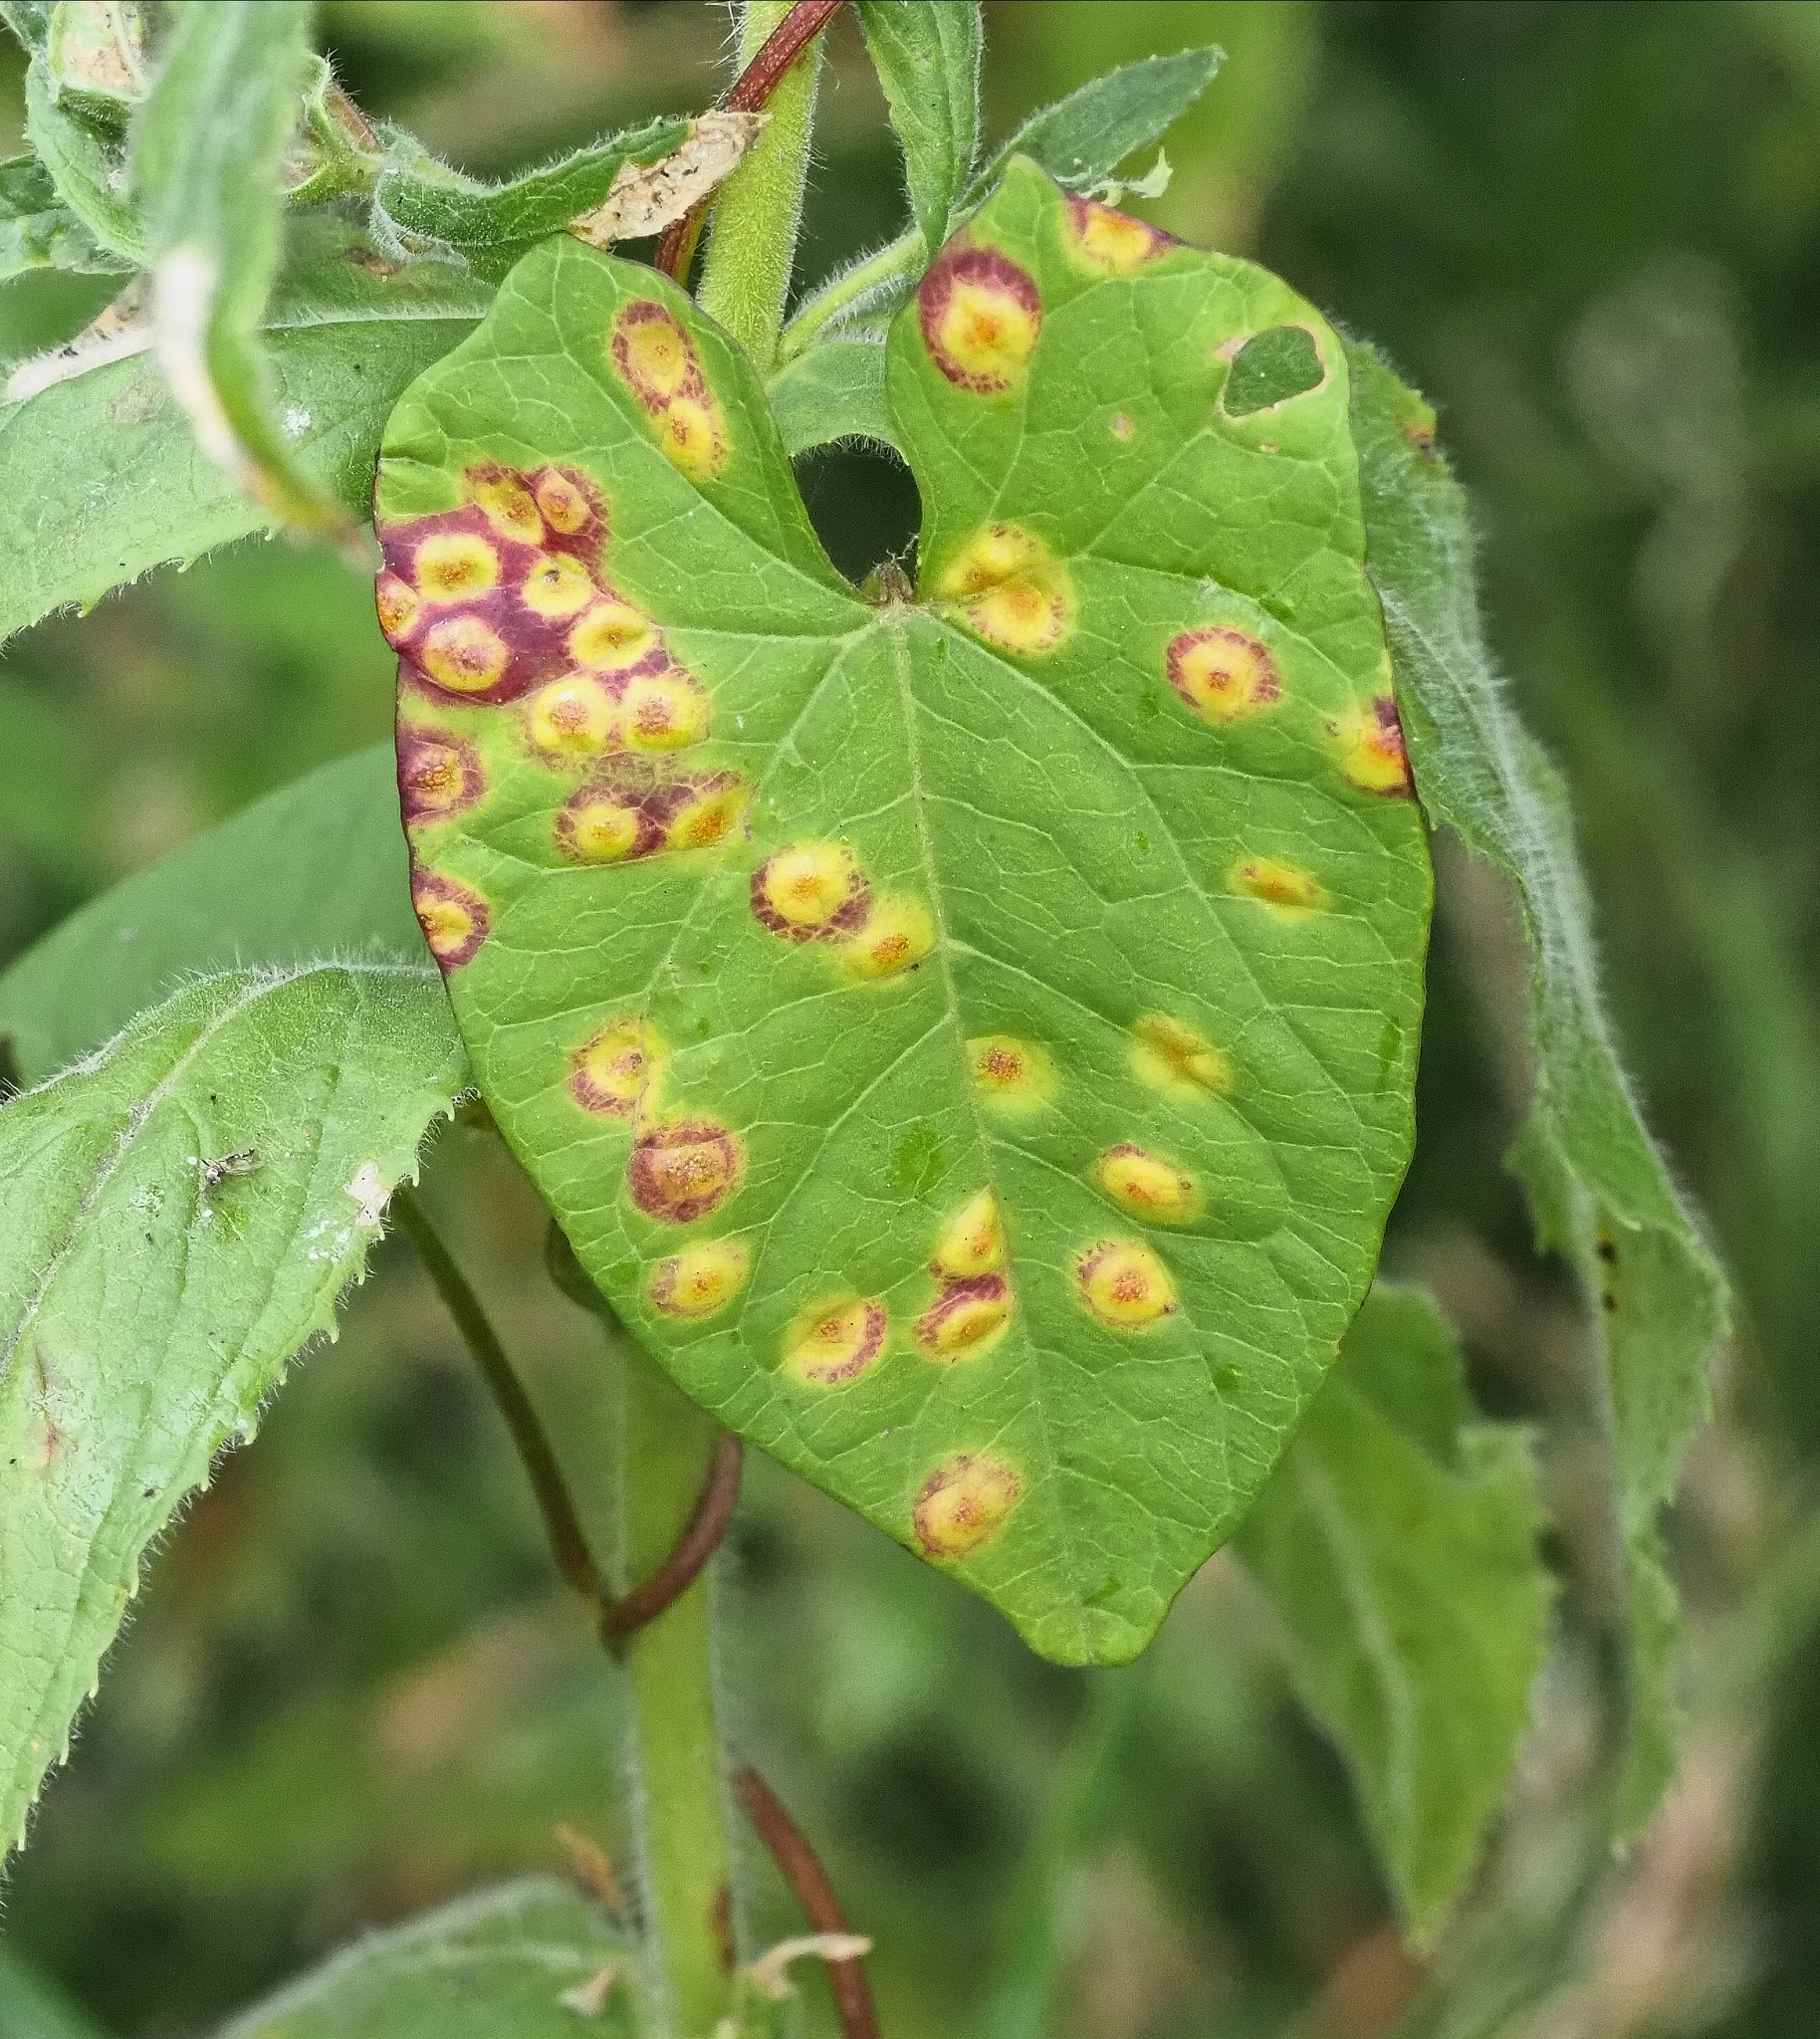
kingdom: Fungi
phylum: Basidiomycota
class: Pucciniomycetes
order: Pucciniales
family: Pucciniaceae
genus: Puccinia
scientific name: Puccinia convolvuli
